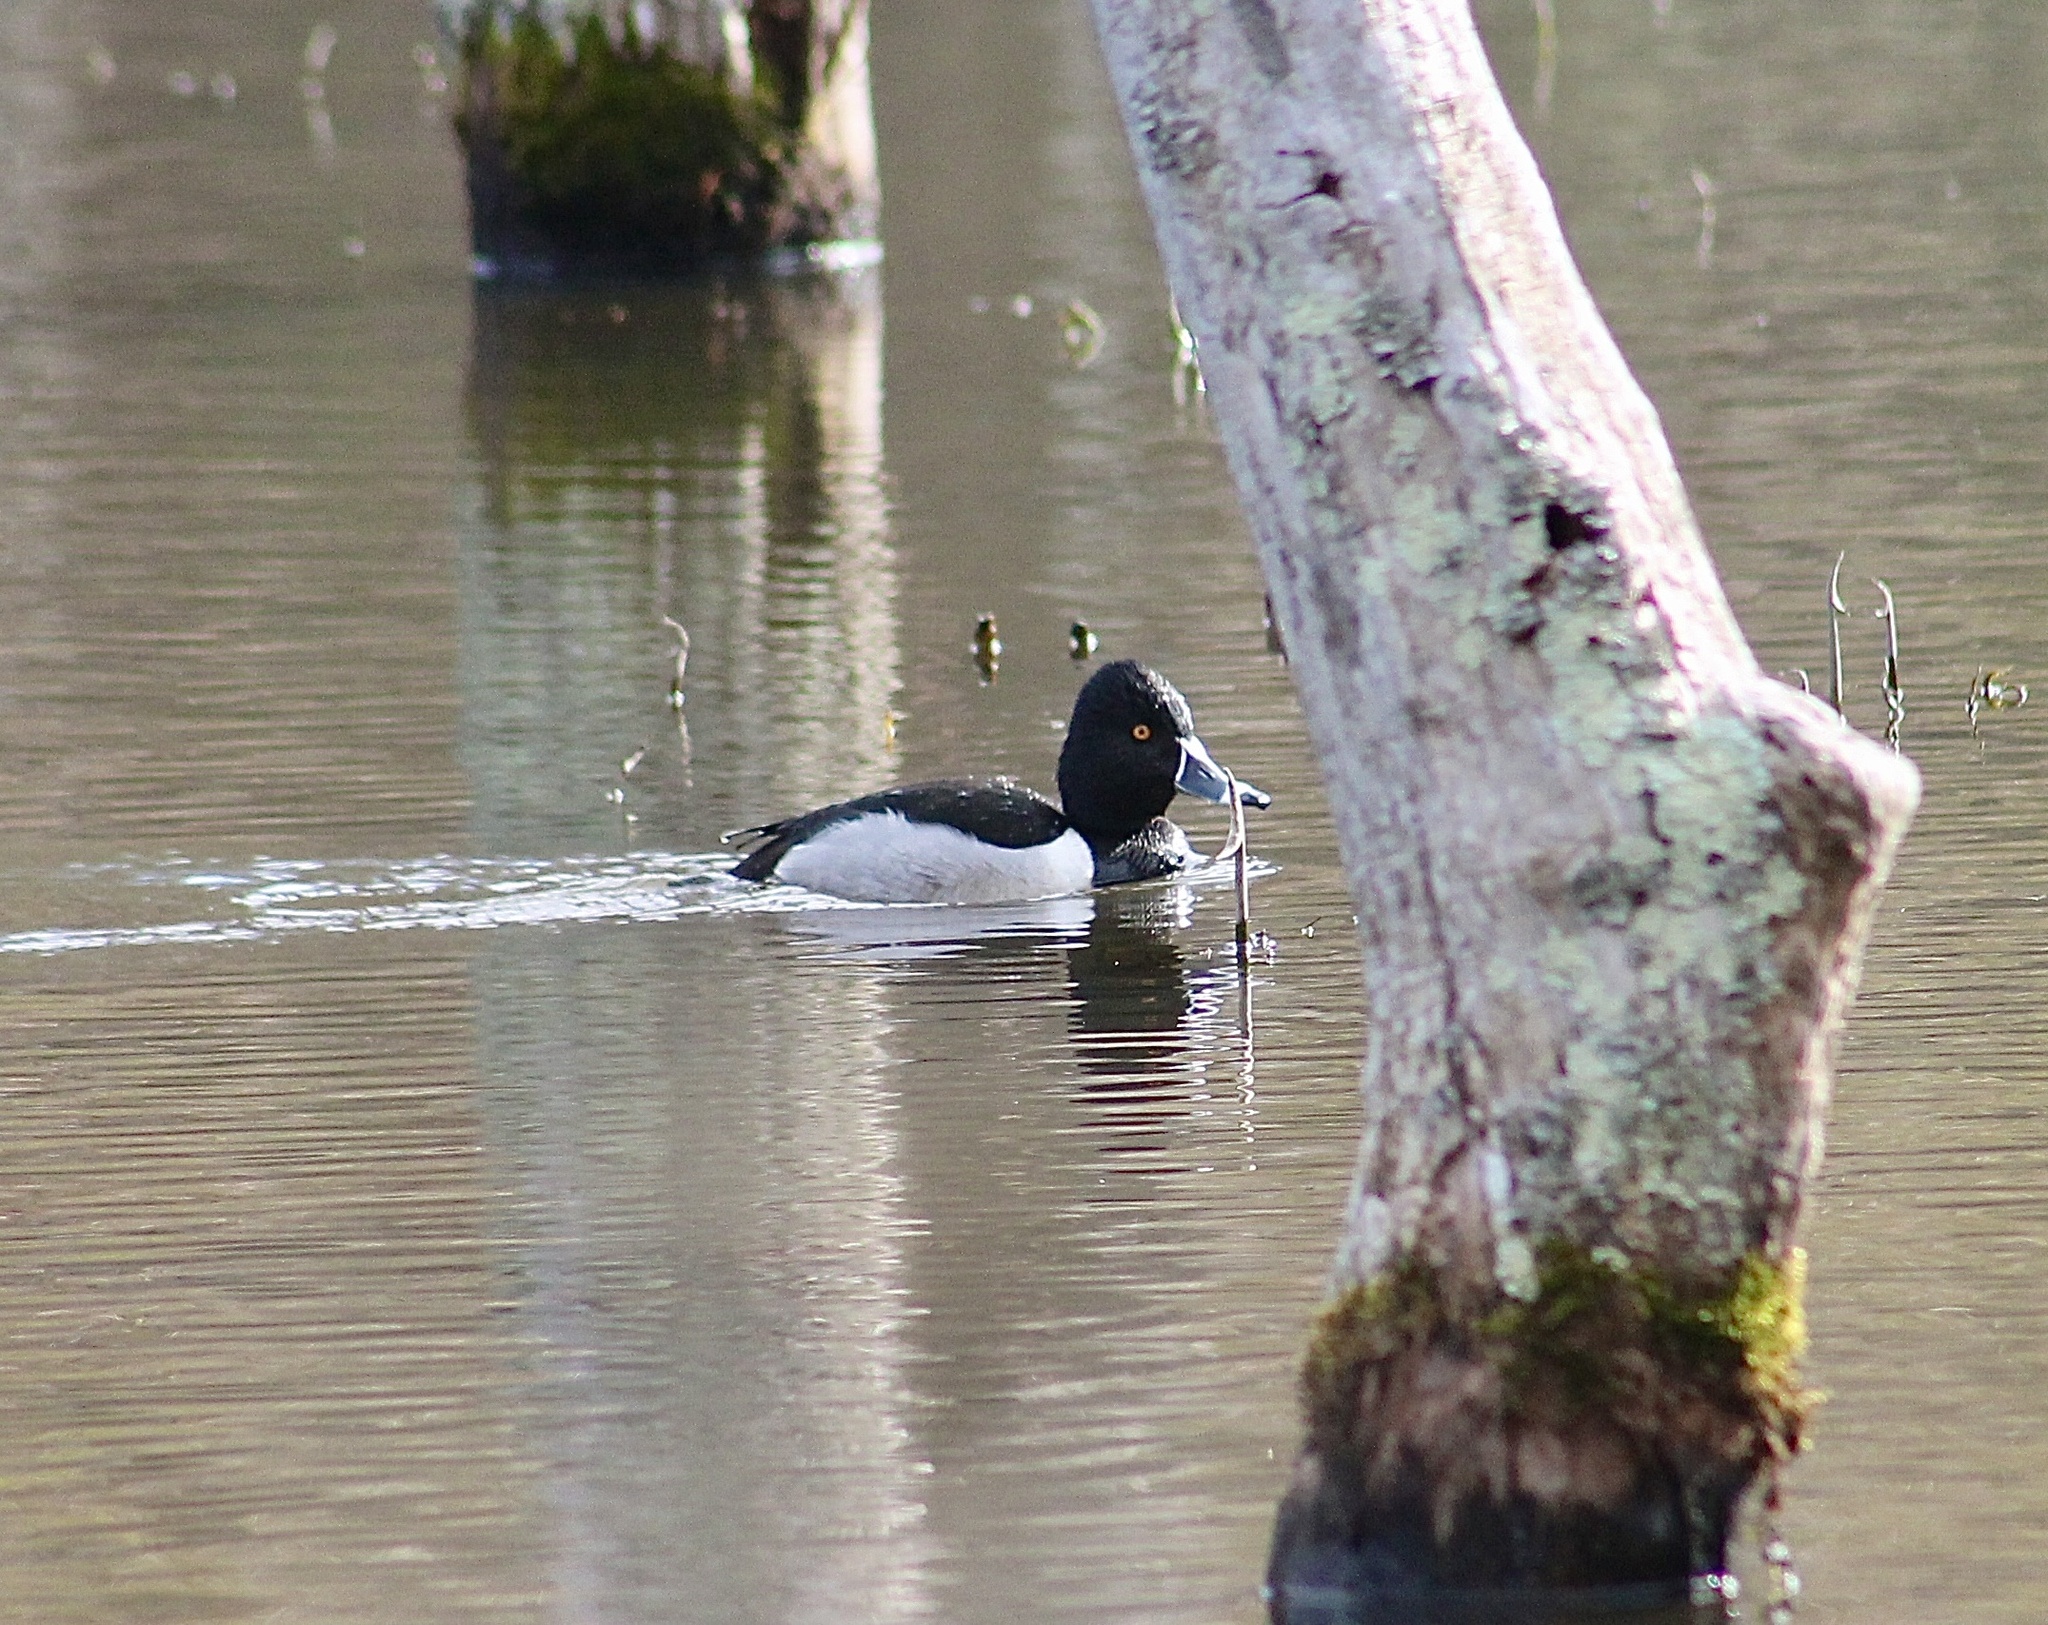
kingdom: Animalia
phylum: Chordata
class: Aves
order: Anseriformes
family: Anatidae
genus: Aythya
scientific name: Aythya collaris
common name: Ring-necked duck
